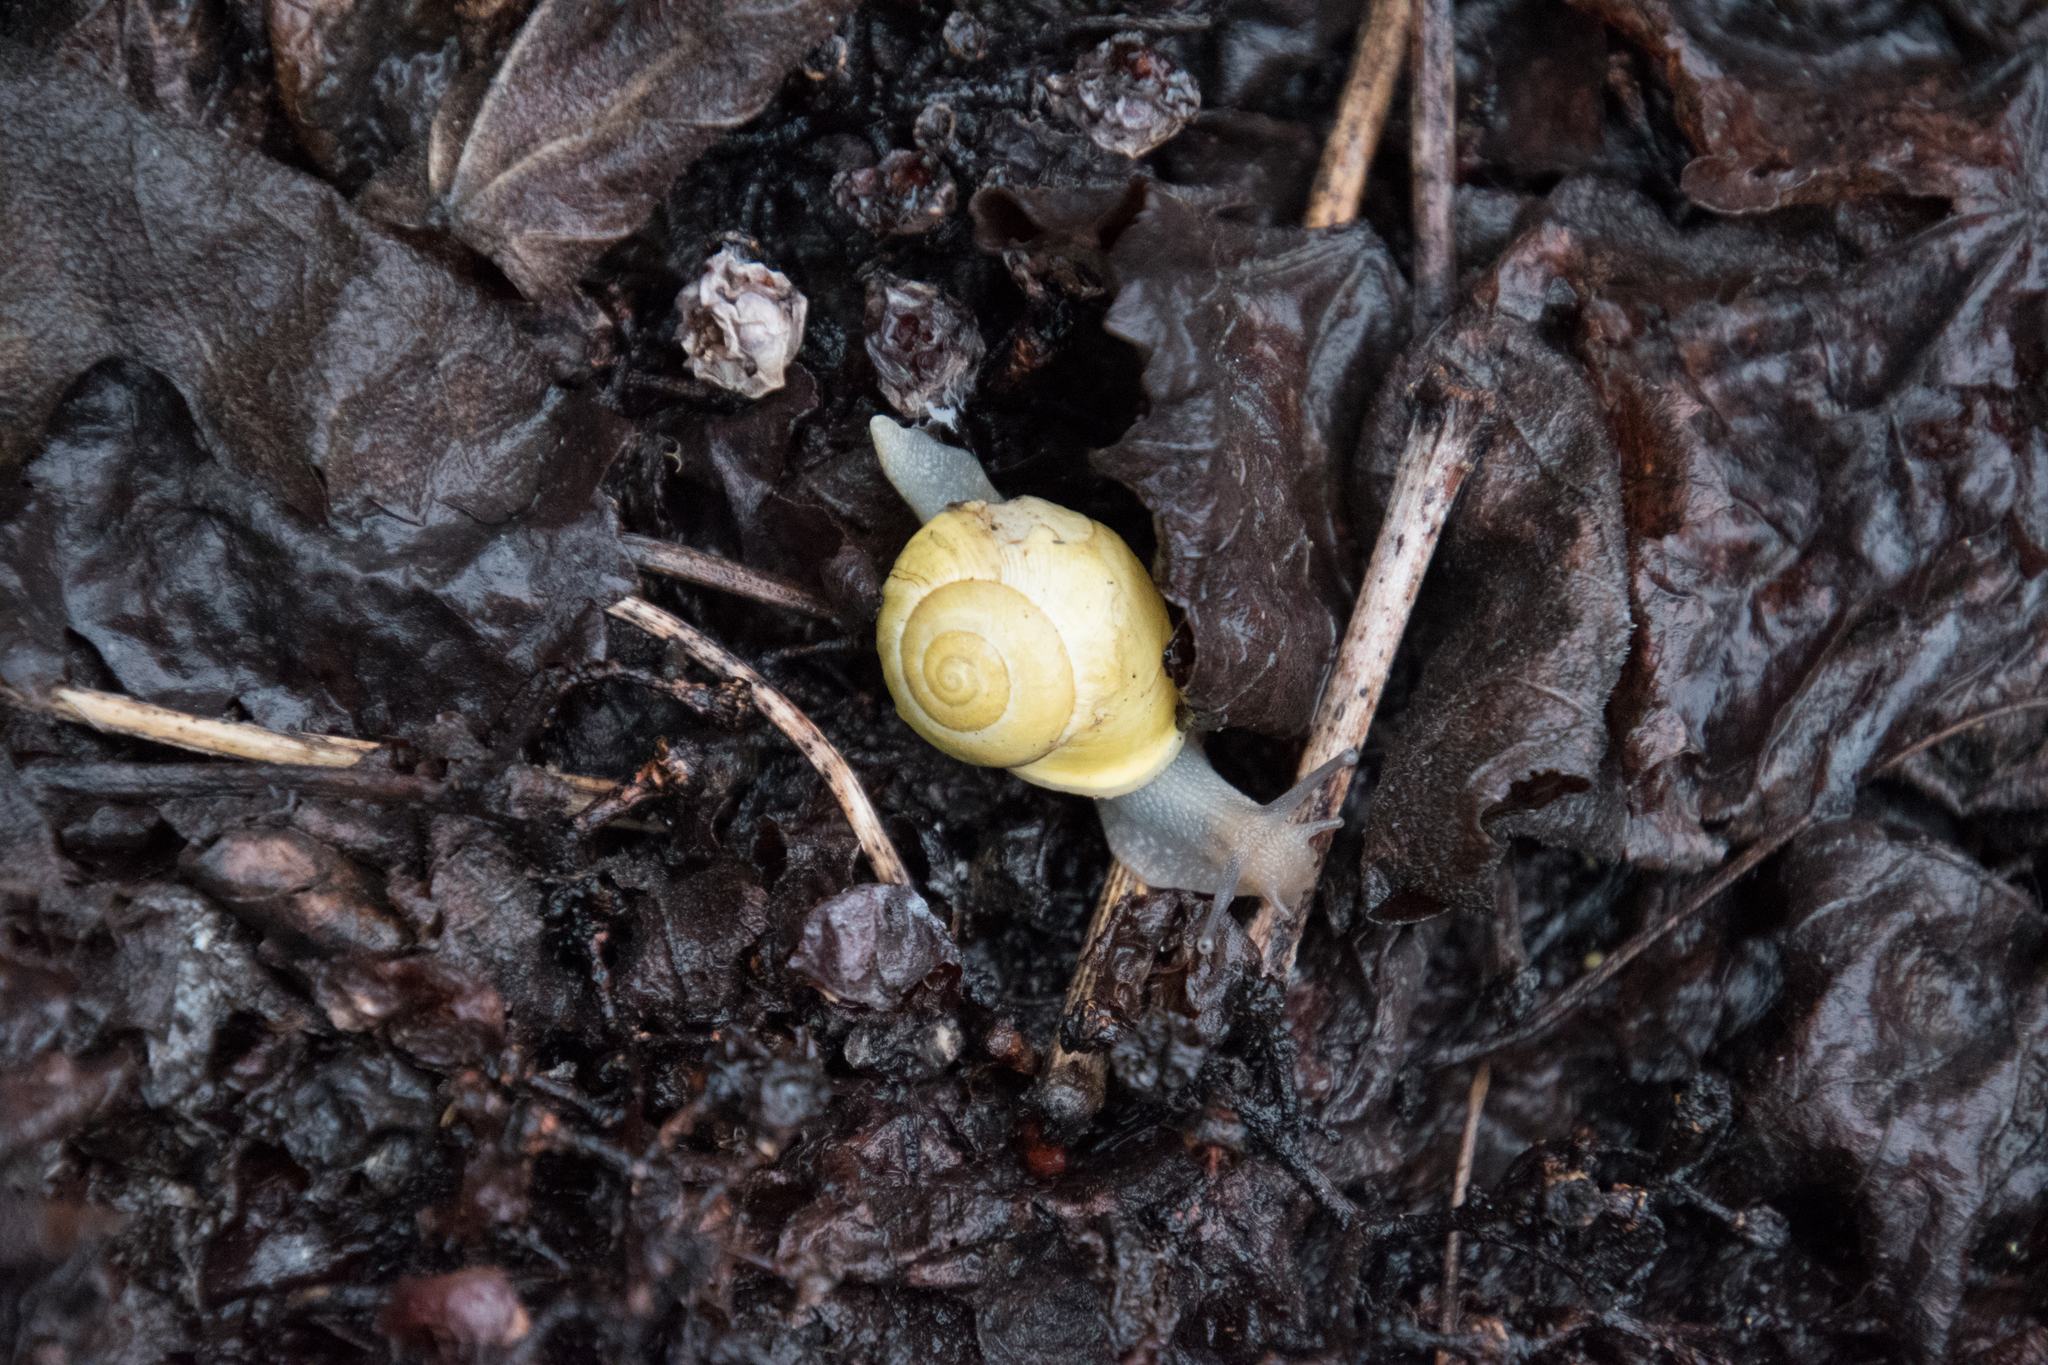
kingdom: Animalia
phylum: Mollusca
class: Gastropoda
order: Stylommatophora
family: Helicidae
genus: Cepaea
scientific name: Cepaea hortensis
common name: White-lip gardensnail
